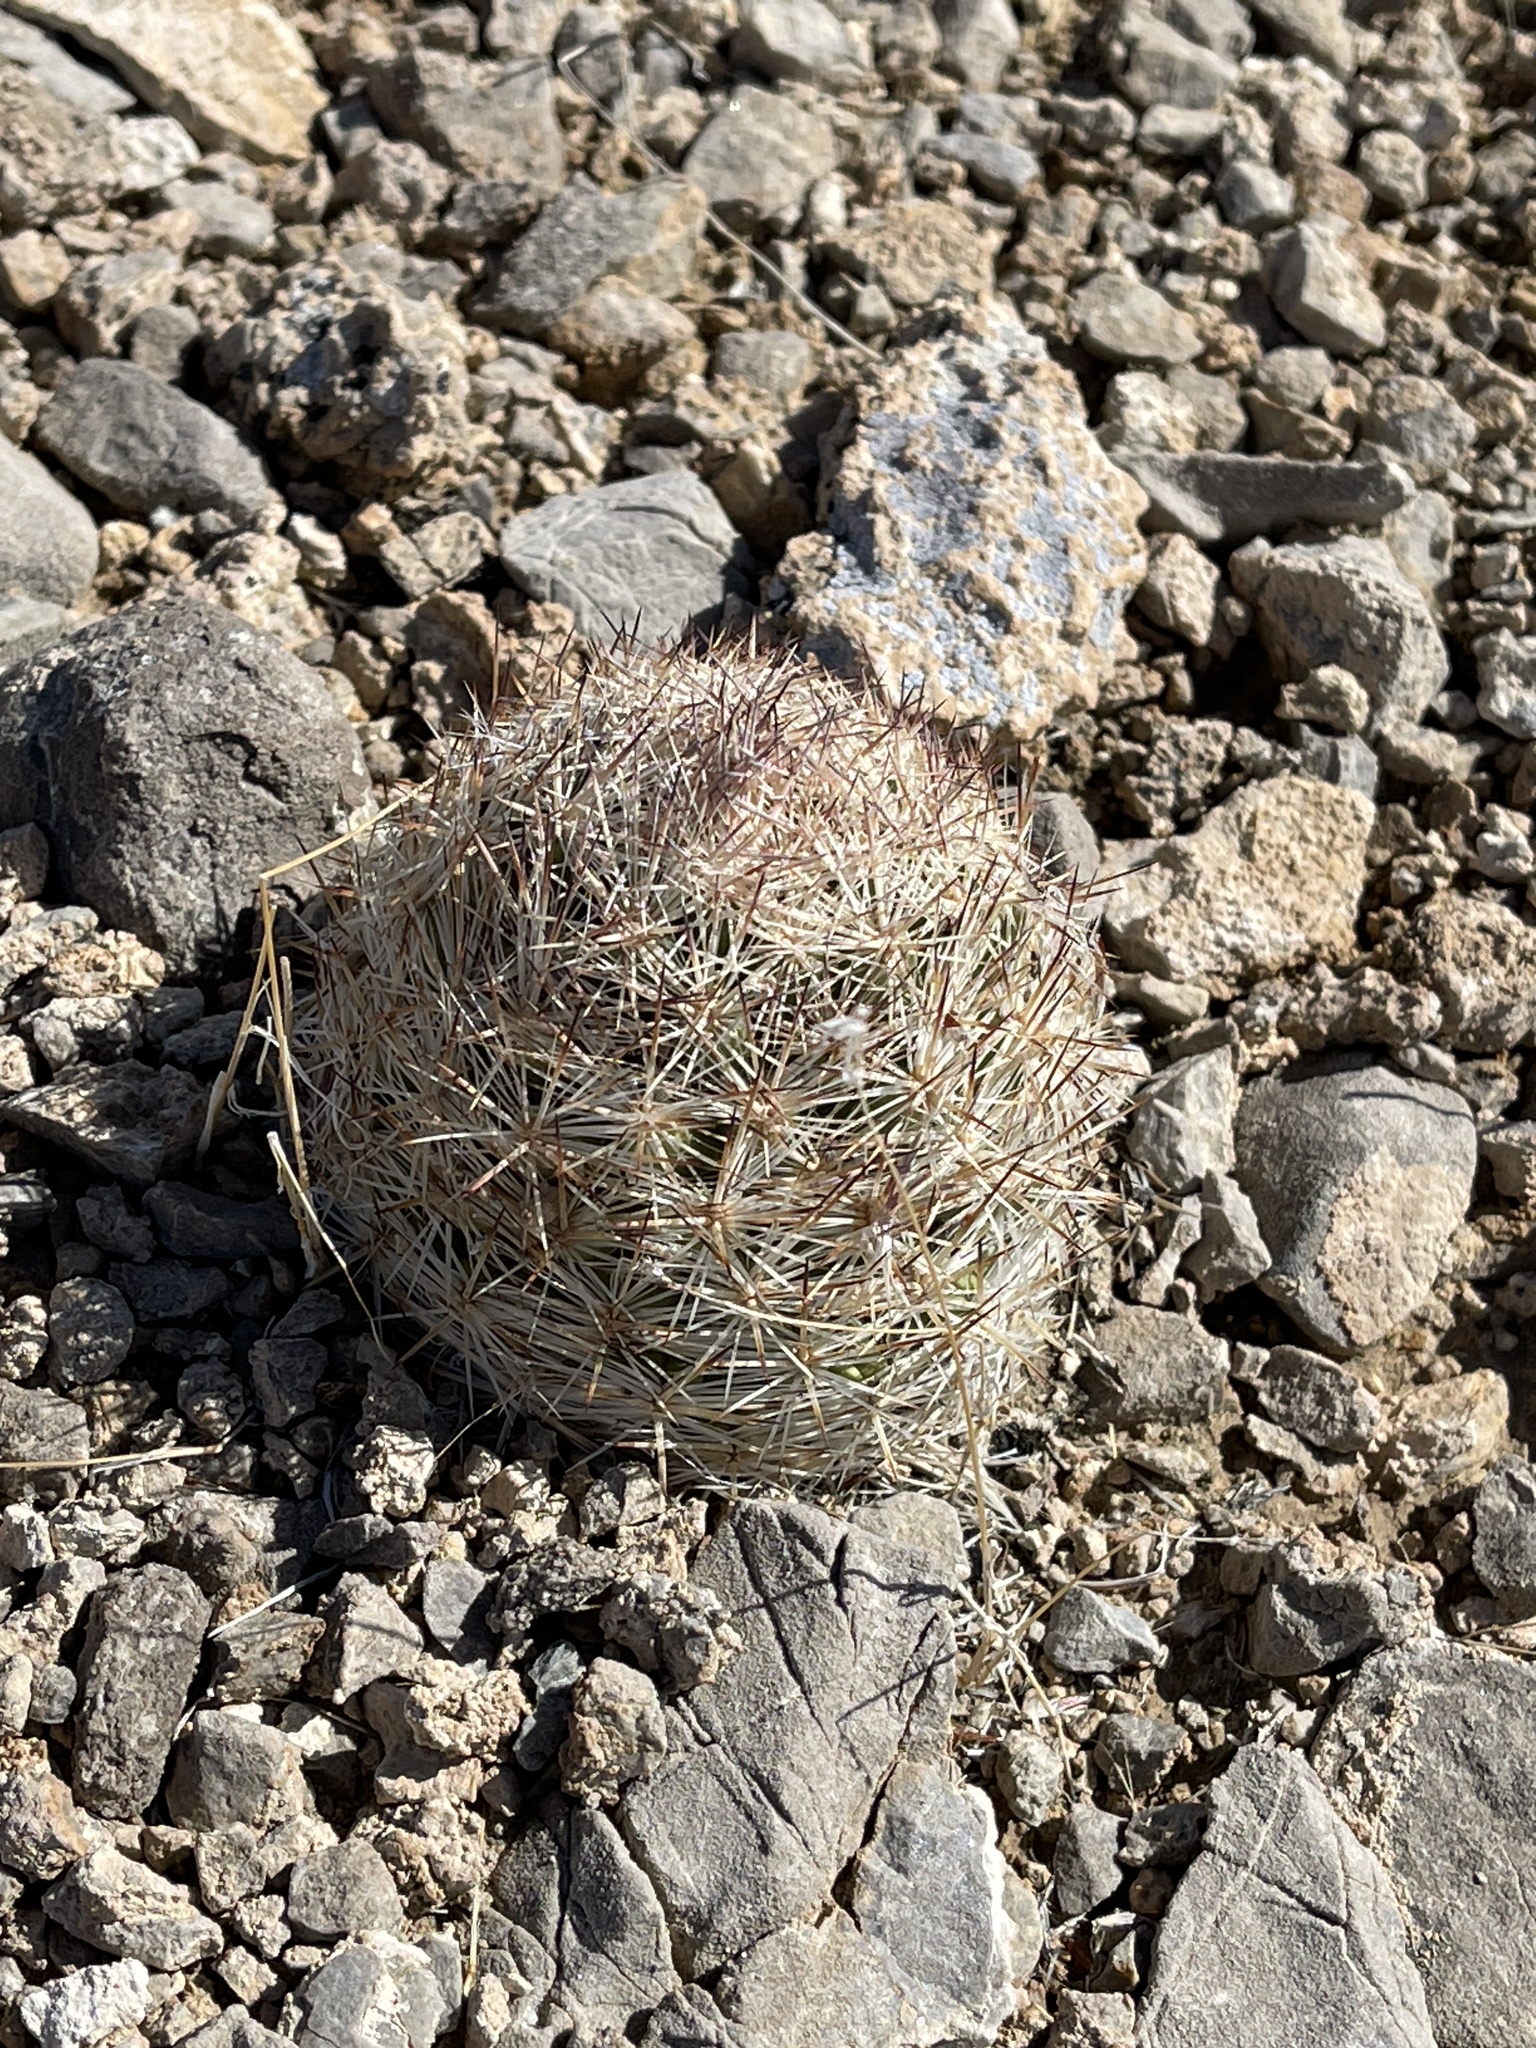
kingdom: Plantae
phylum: Tracheophyta
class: Magnoliopsida
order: Caryophyllales
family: Cactaceae
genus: Pelecyphora
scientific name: Pelecyphora dasyacantha
